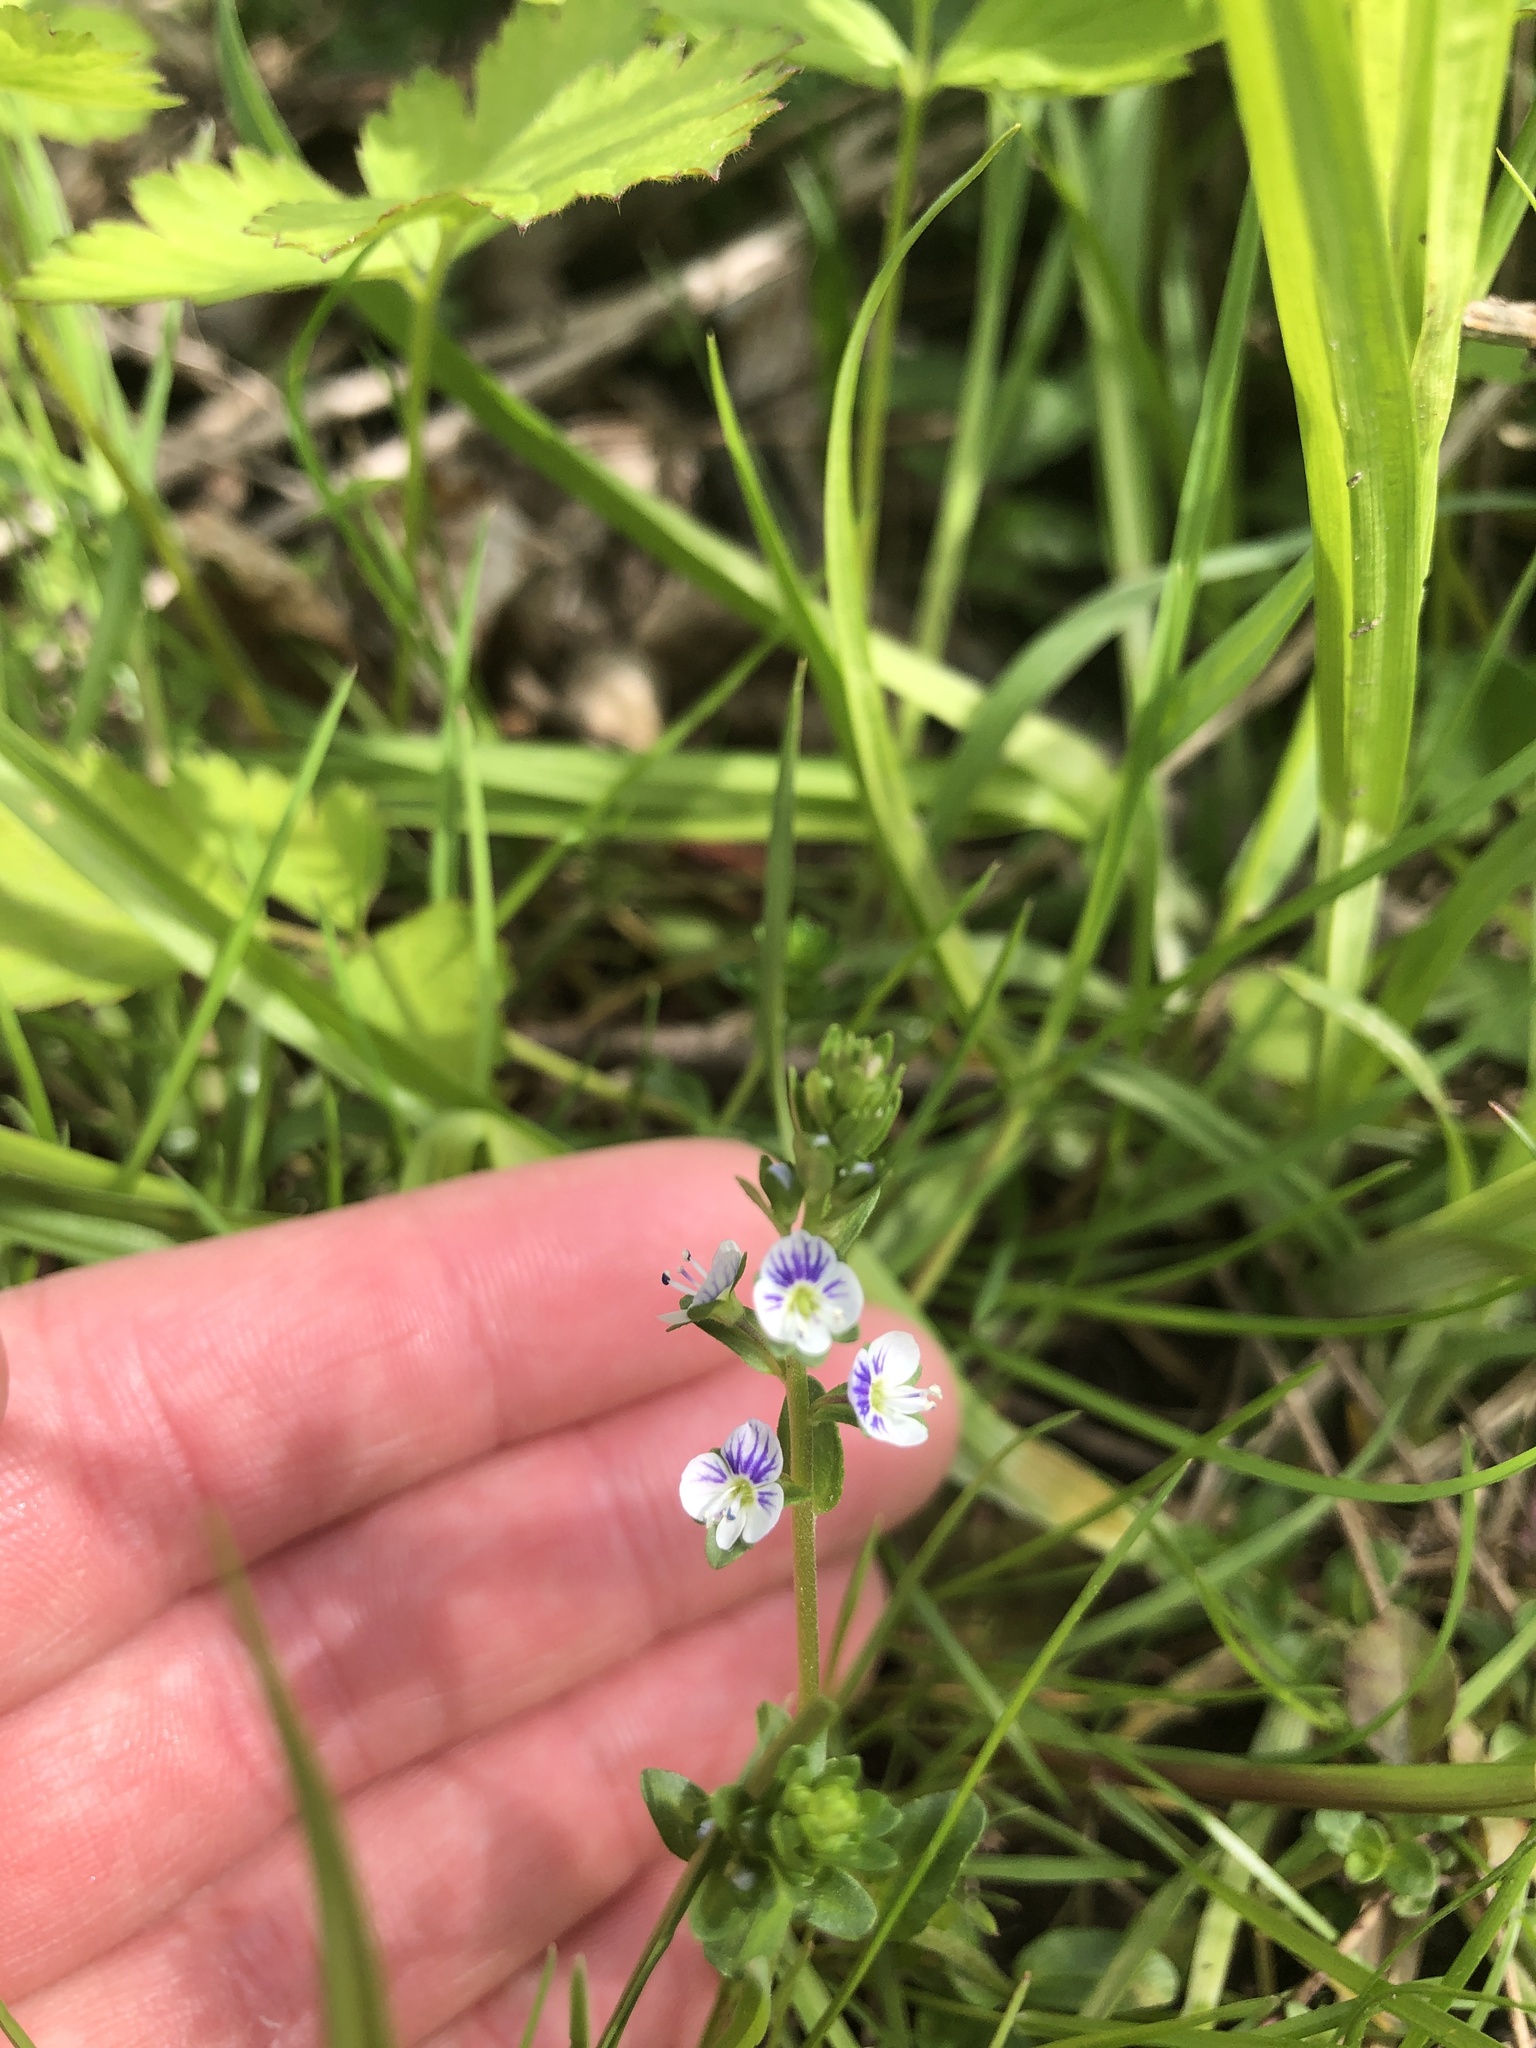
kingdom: Plantae
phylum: Tracheophyta
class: Magnoliopsida
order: Lamiales
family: Plantaginaceae
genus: Veronica
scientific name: Veronica serpyllifolia
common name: Thyme-leaved speedwell
